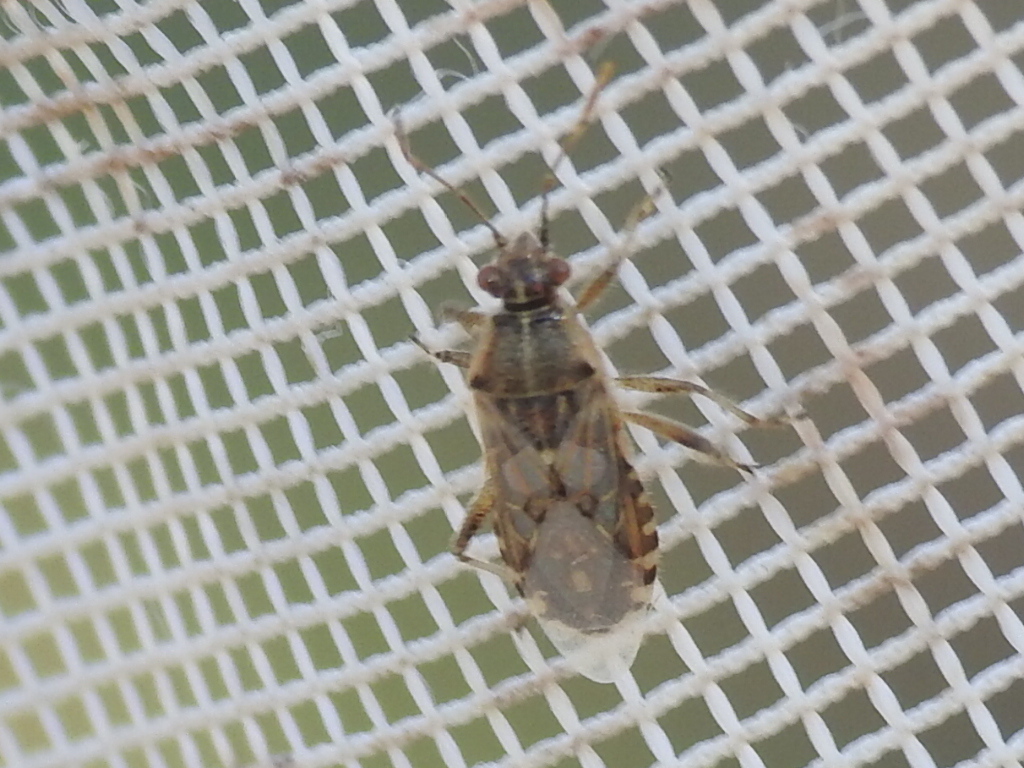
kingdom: Animalia
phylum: Arthropoda
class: Insecta
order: Hemiptera
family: Rhopalidae
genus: Liorhyssus
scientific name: Liorhyssus hyalinus
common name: Scentless plant bug
